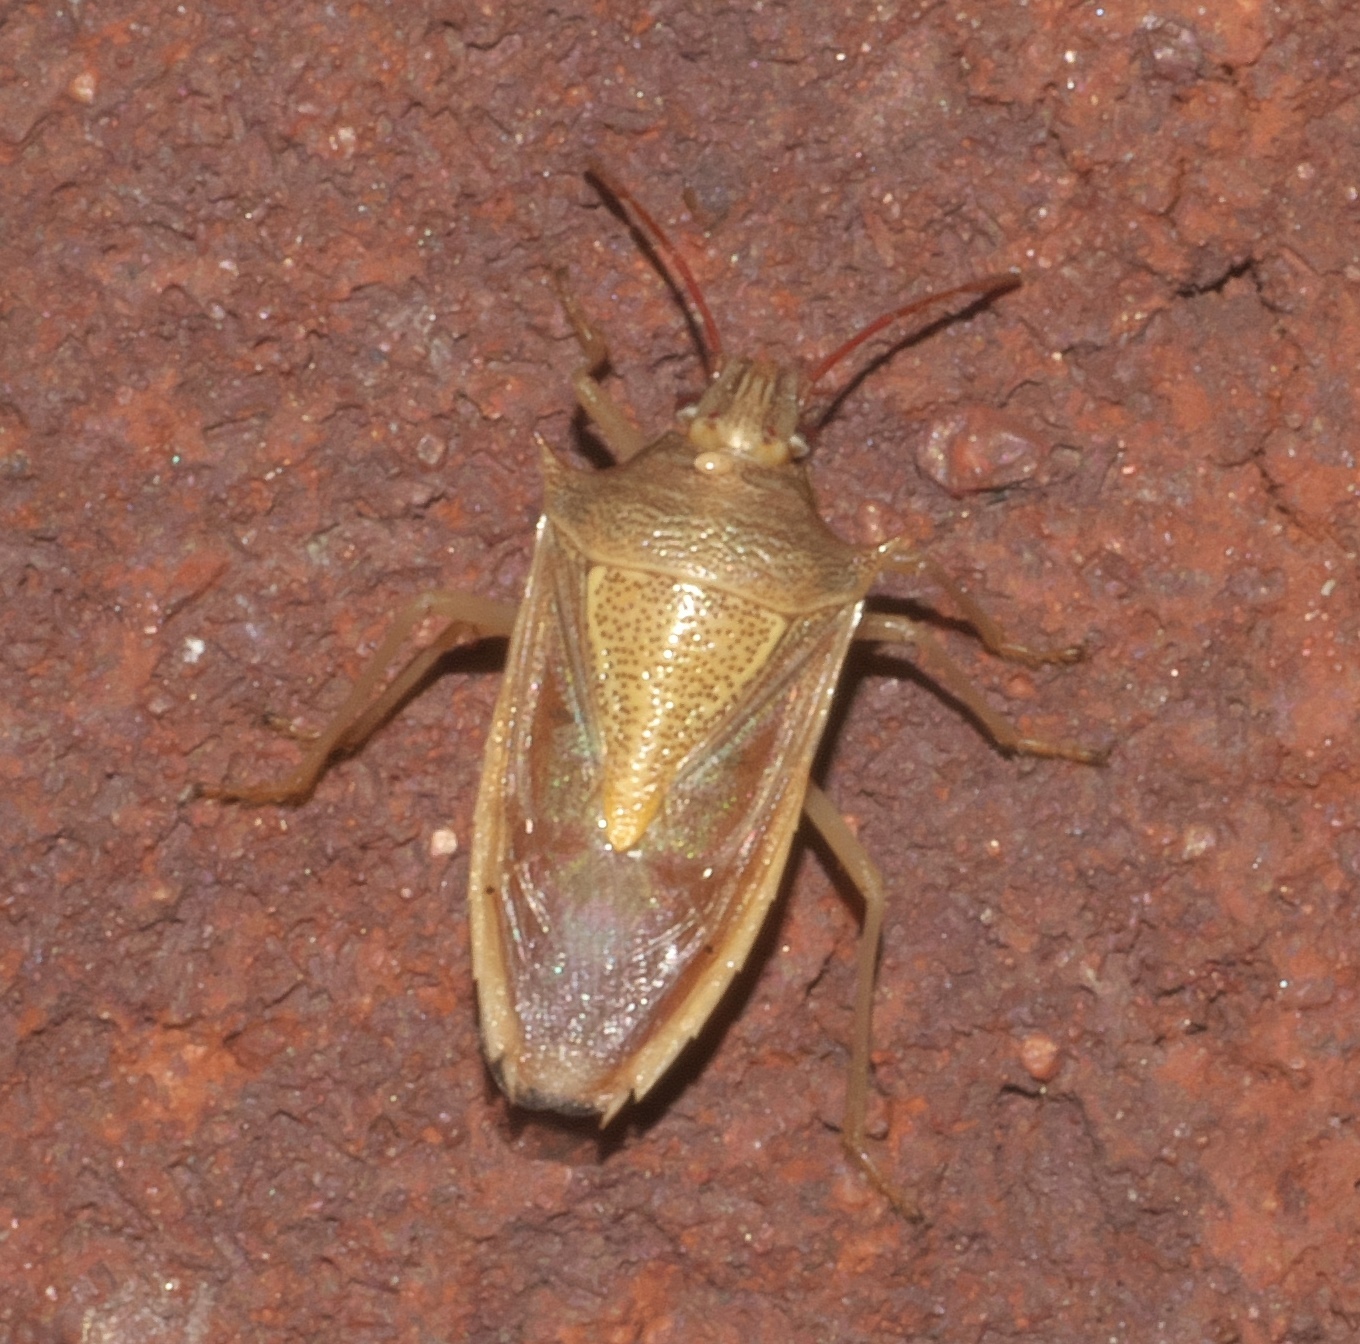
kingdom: Animalia
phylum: Arthropoda
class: Insecta
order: Hemiptera
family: Pentatomidae
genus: Oebalus
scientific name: Oebalus pugnax
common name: Rice stink bug
